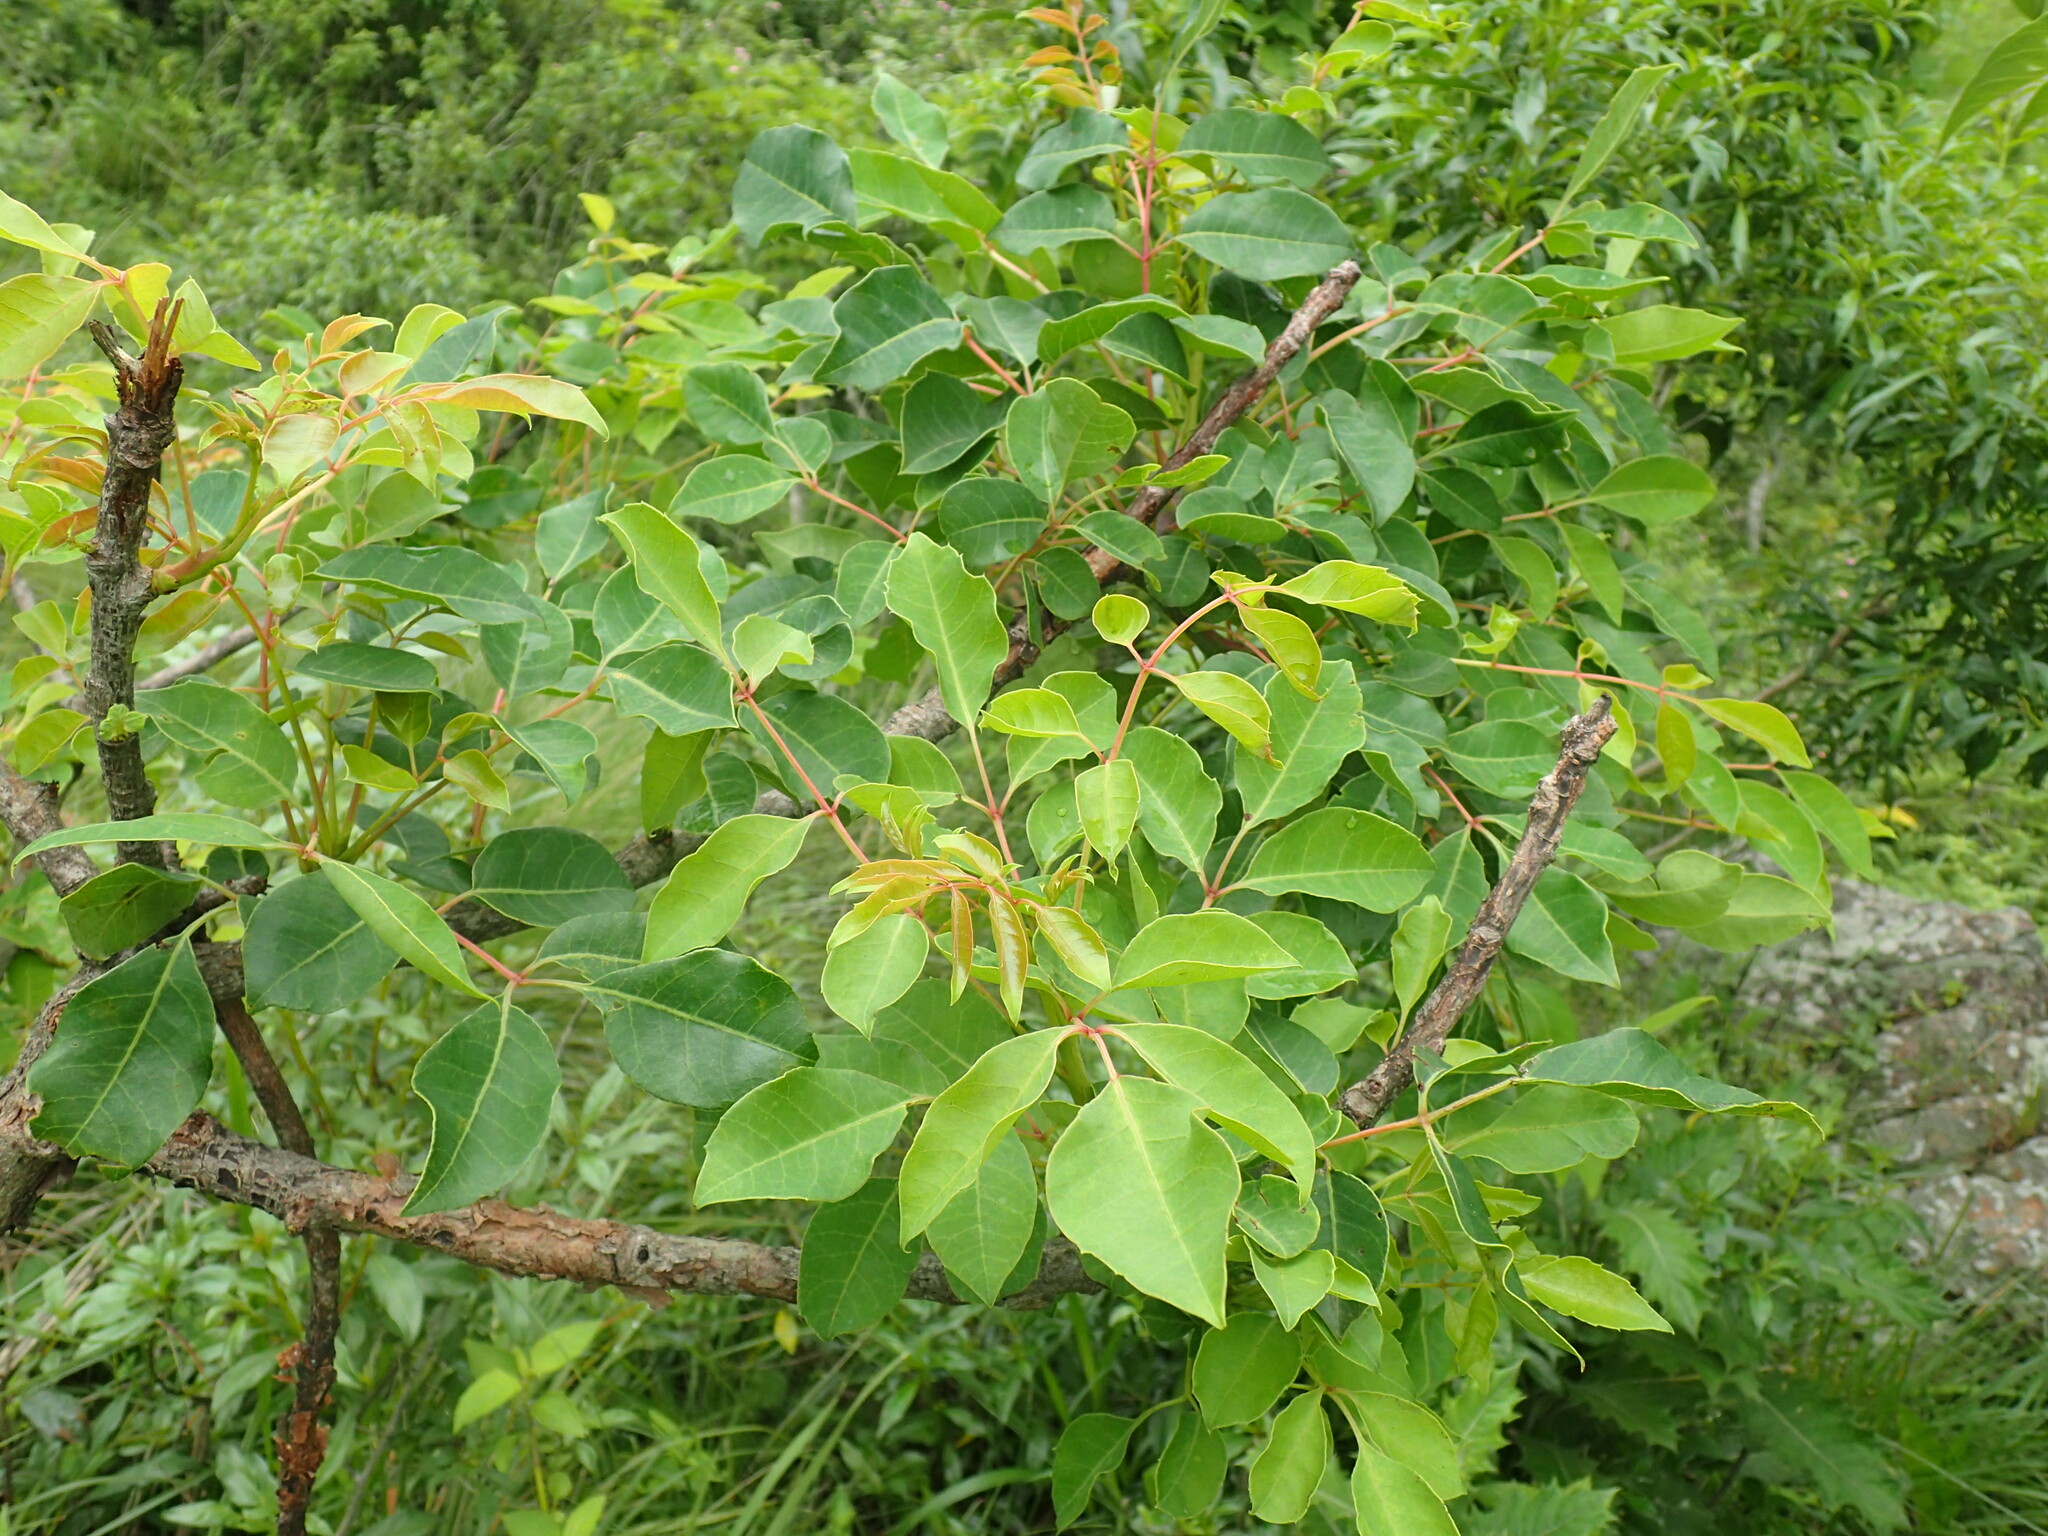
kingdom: Plantae
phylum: Tracheophyta
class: Magnoliopsida
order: Sapindales
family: Anacardiaceae
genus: Sclerocarya
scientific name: Sclerocarya birrea
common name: Marula
